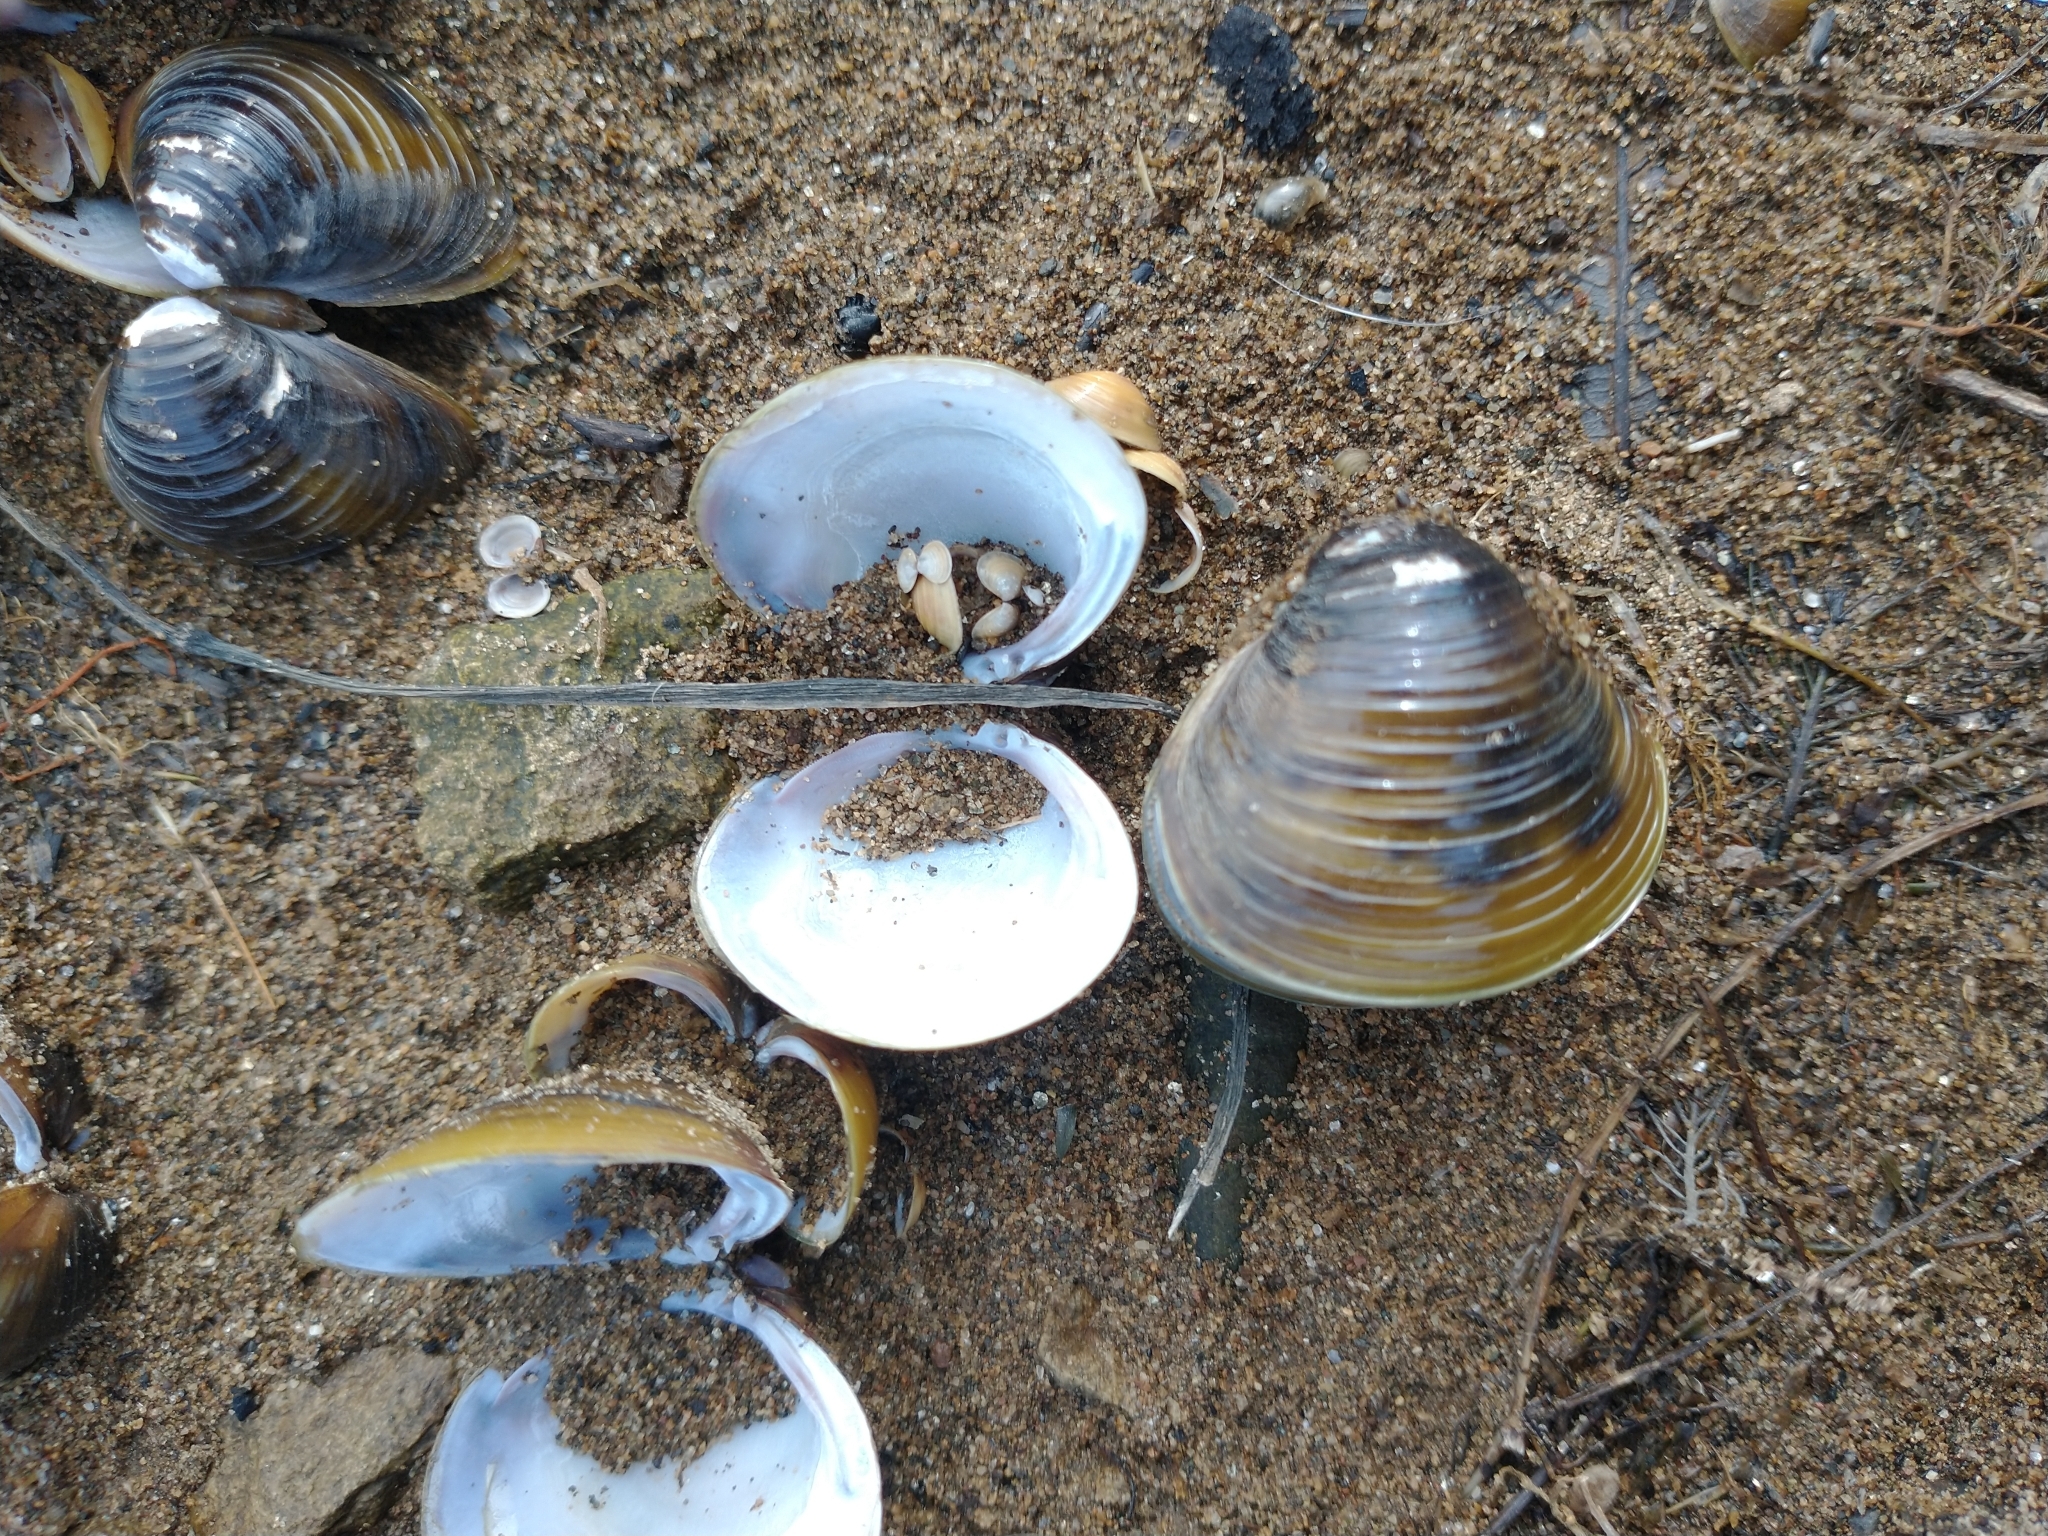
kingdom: Animalia
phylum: Mollusca
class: Bivalvia
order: Venerida
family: Cyrenidae
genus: Corbicula
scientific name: Corbicula fluminea
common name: Asian clam
